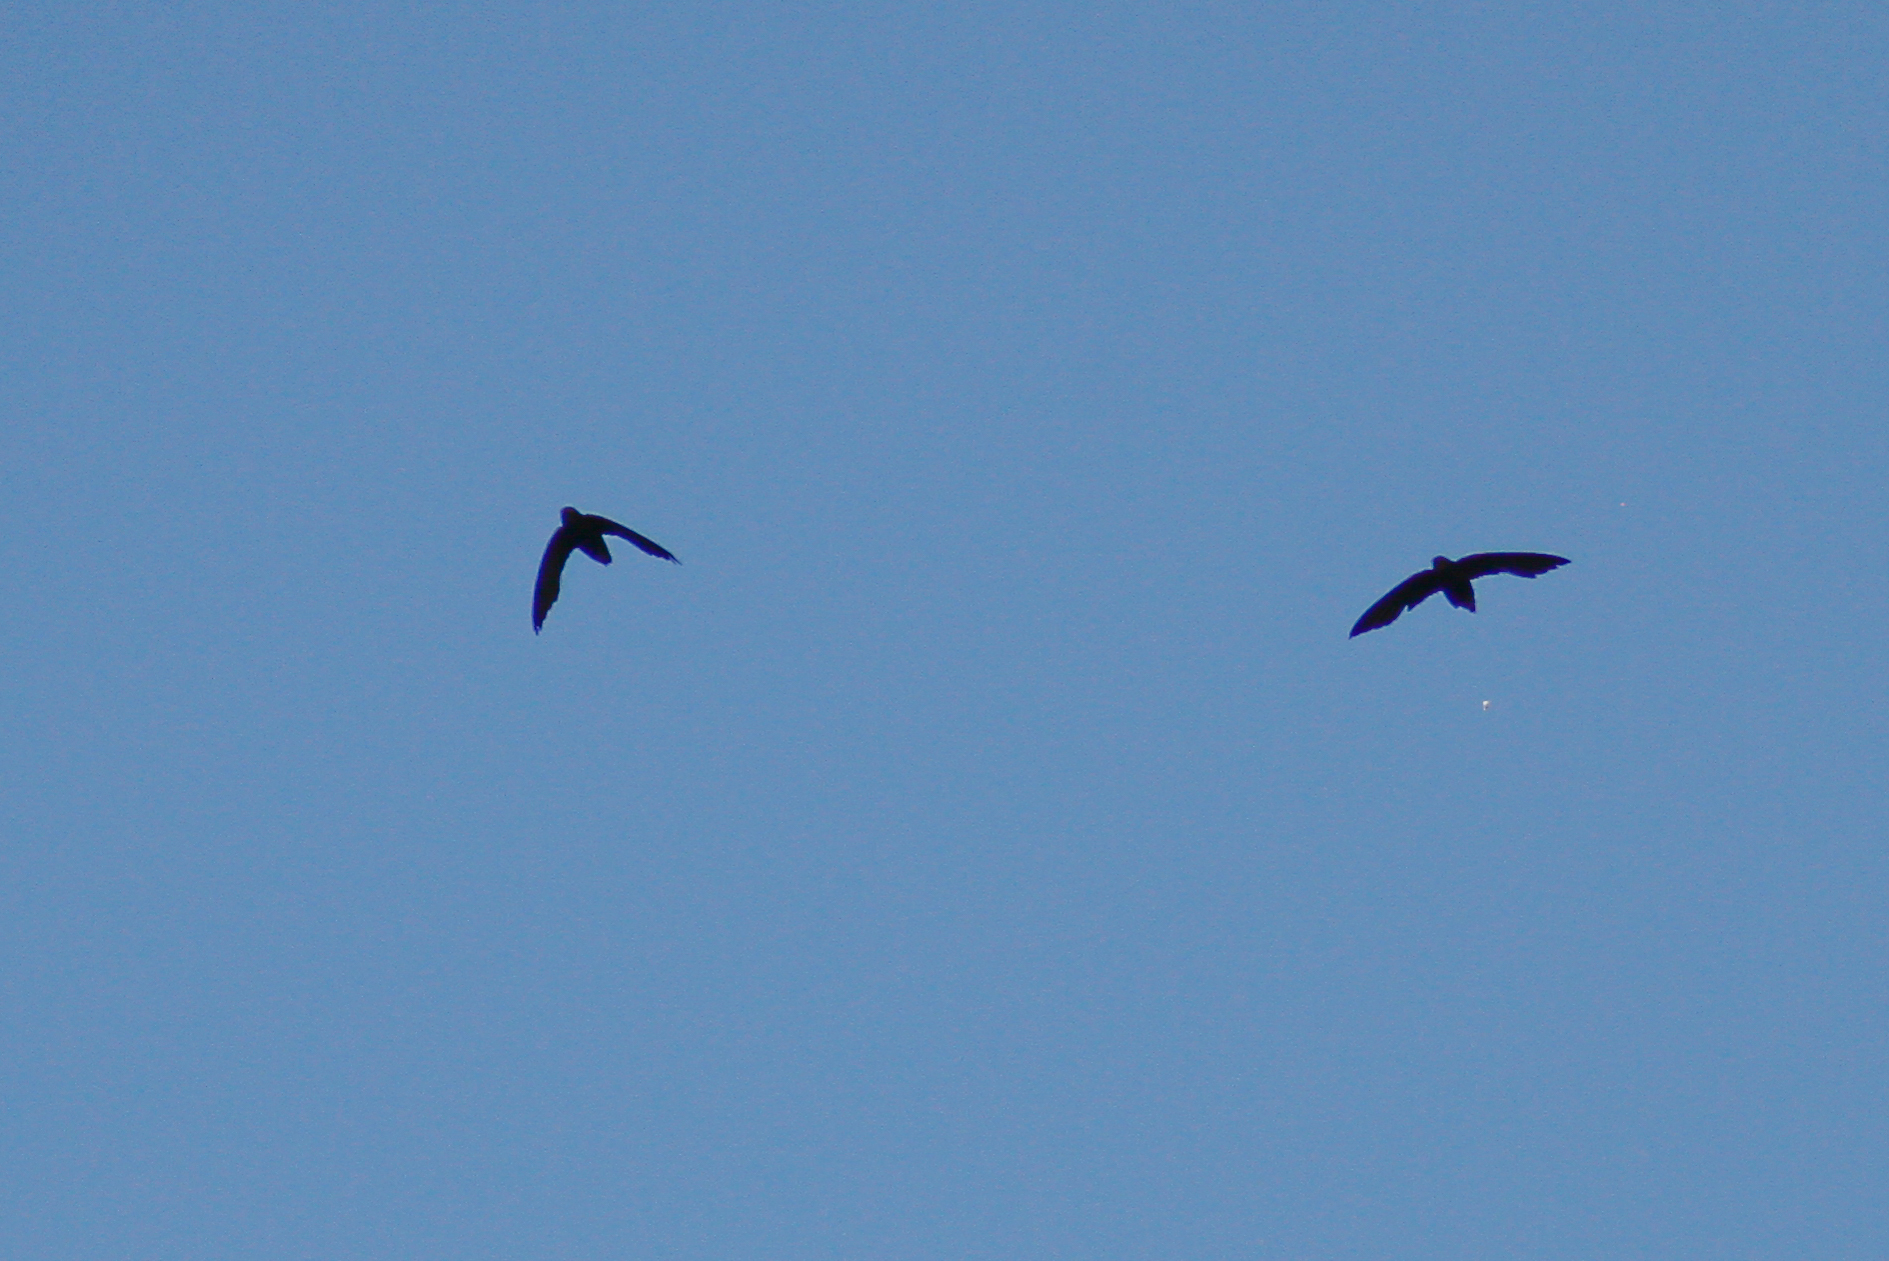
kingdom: Animalia
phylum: Chordata
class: Aves
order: Apodiformes
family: Apodidae
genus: Chaetura
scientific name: Chaetura brachyura
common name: Short-tailed swift
